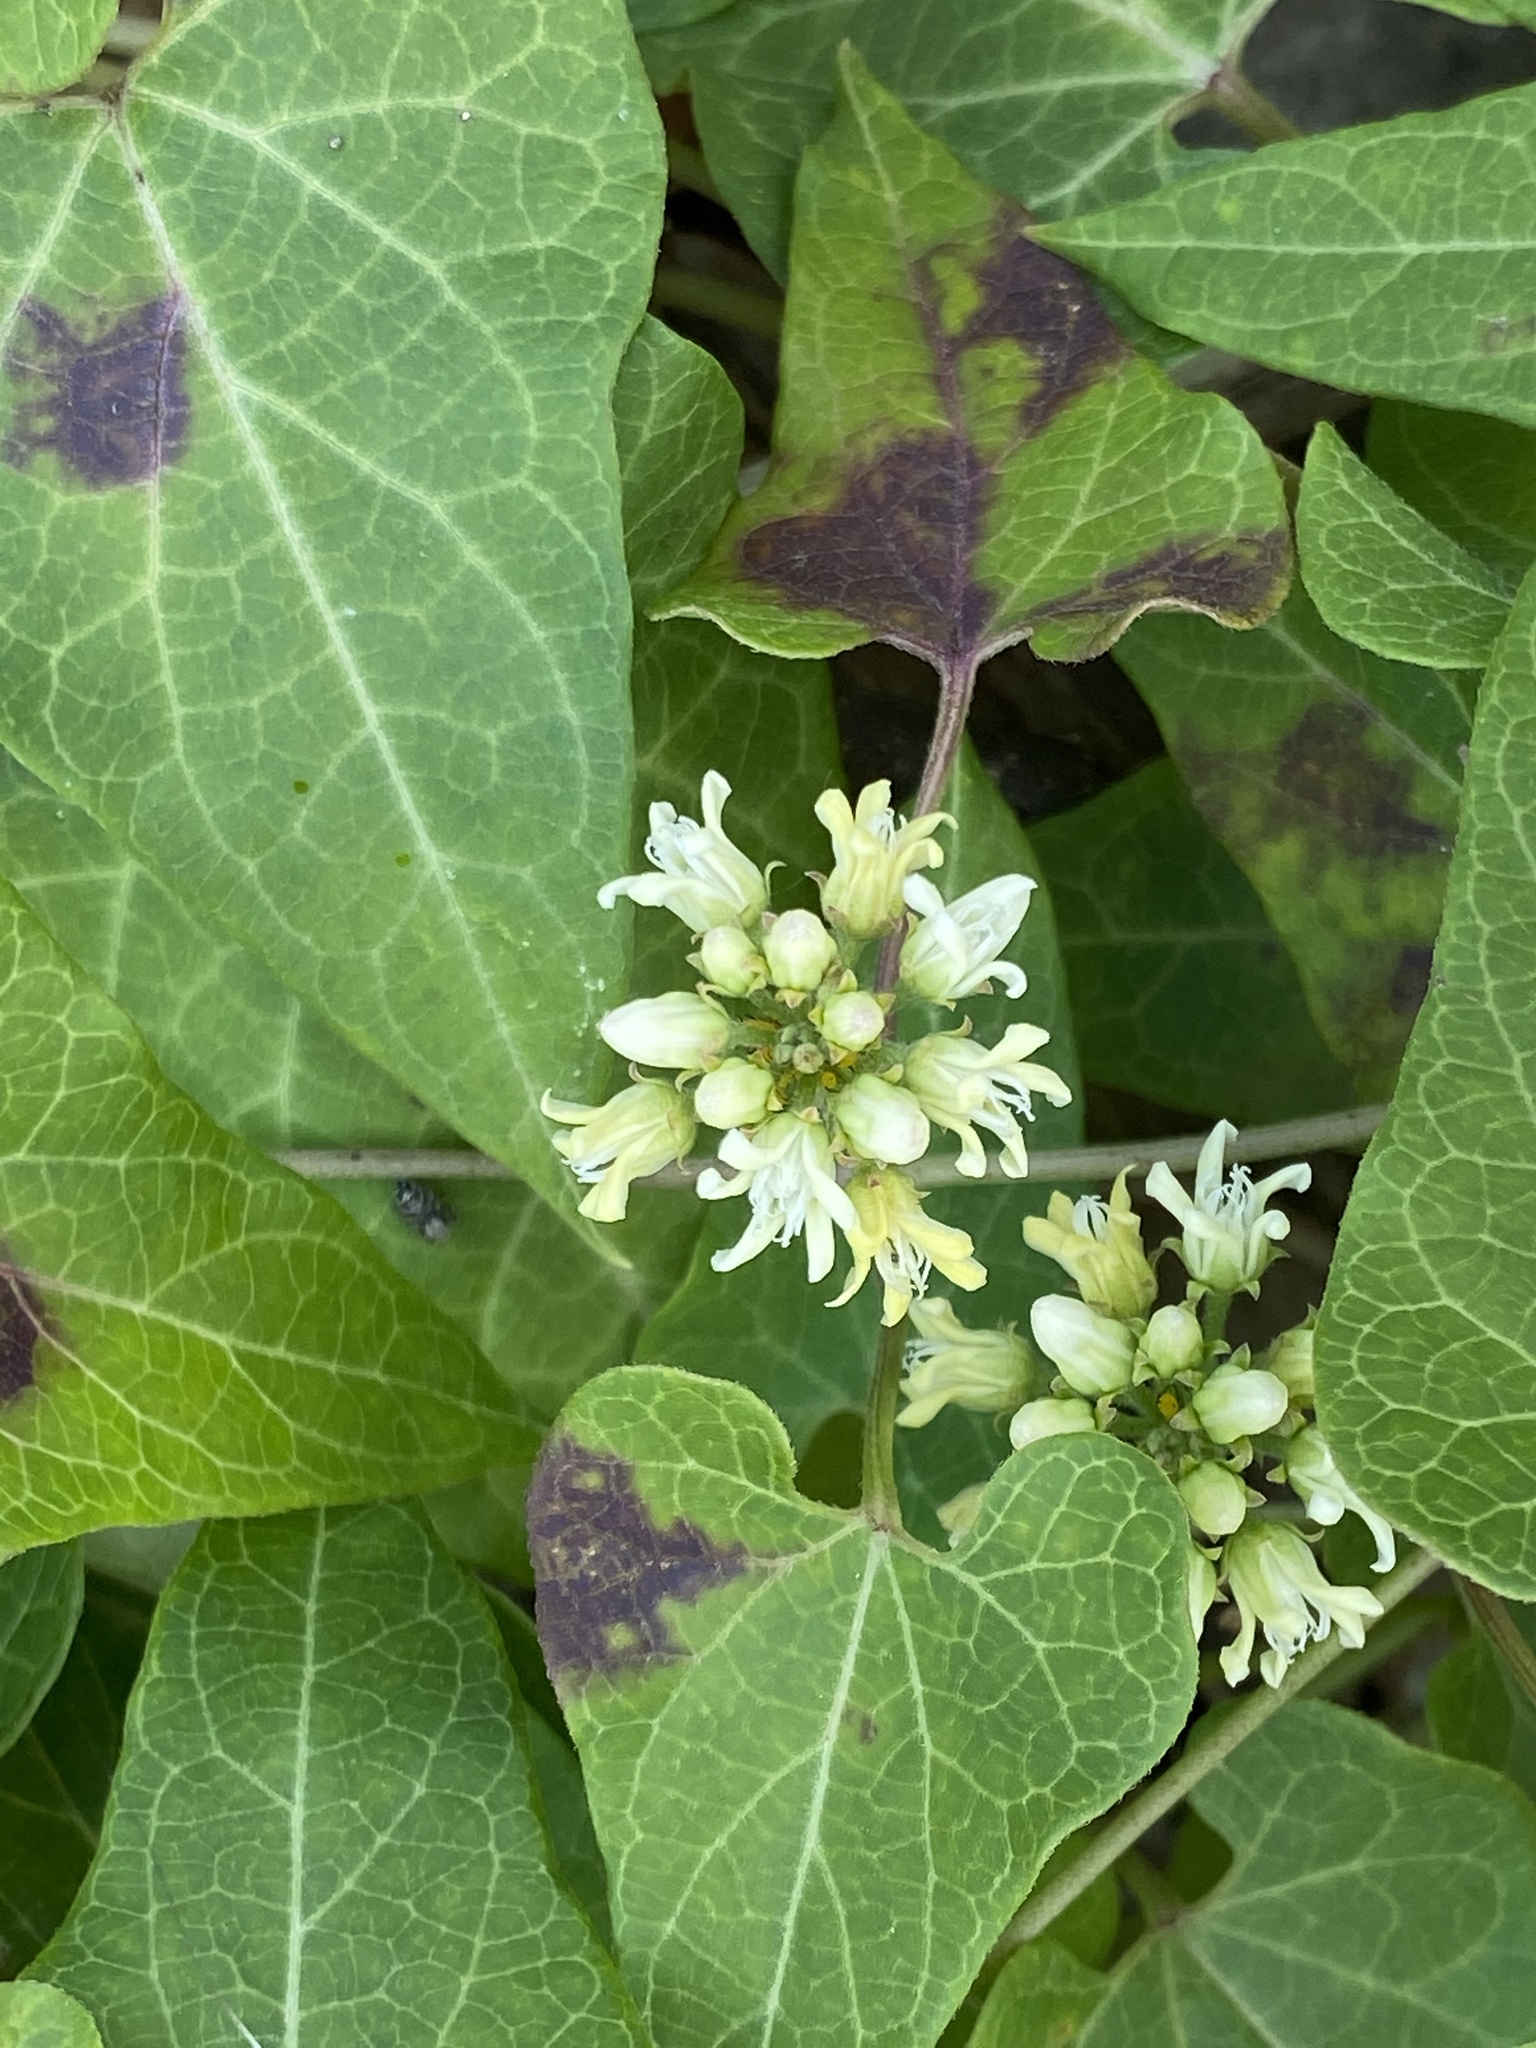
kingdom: Plantae
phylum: Tracheophyta
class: Magnoliopsida
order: Gentianales
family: Apocynaceae
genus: Cynanchum
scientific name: Cynanchum laeve
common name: Sandvine
